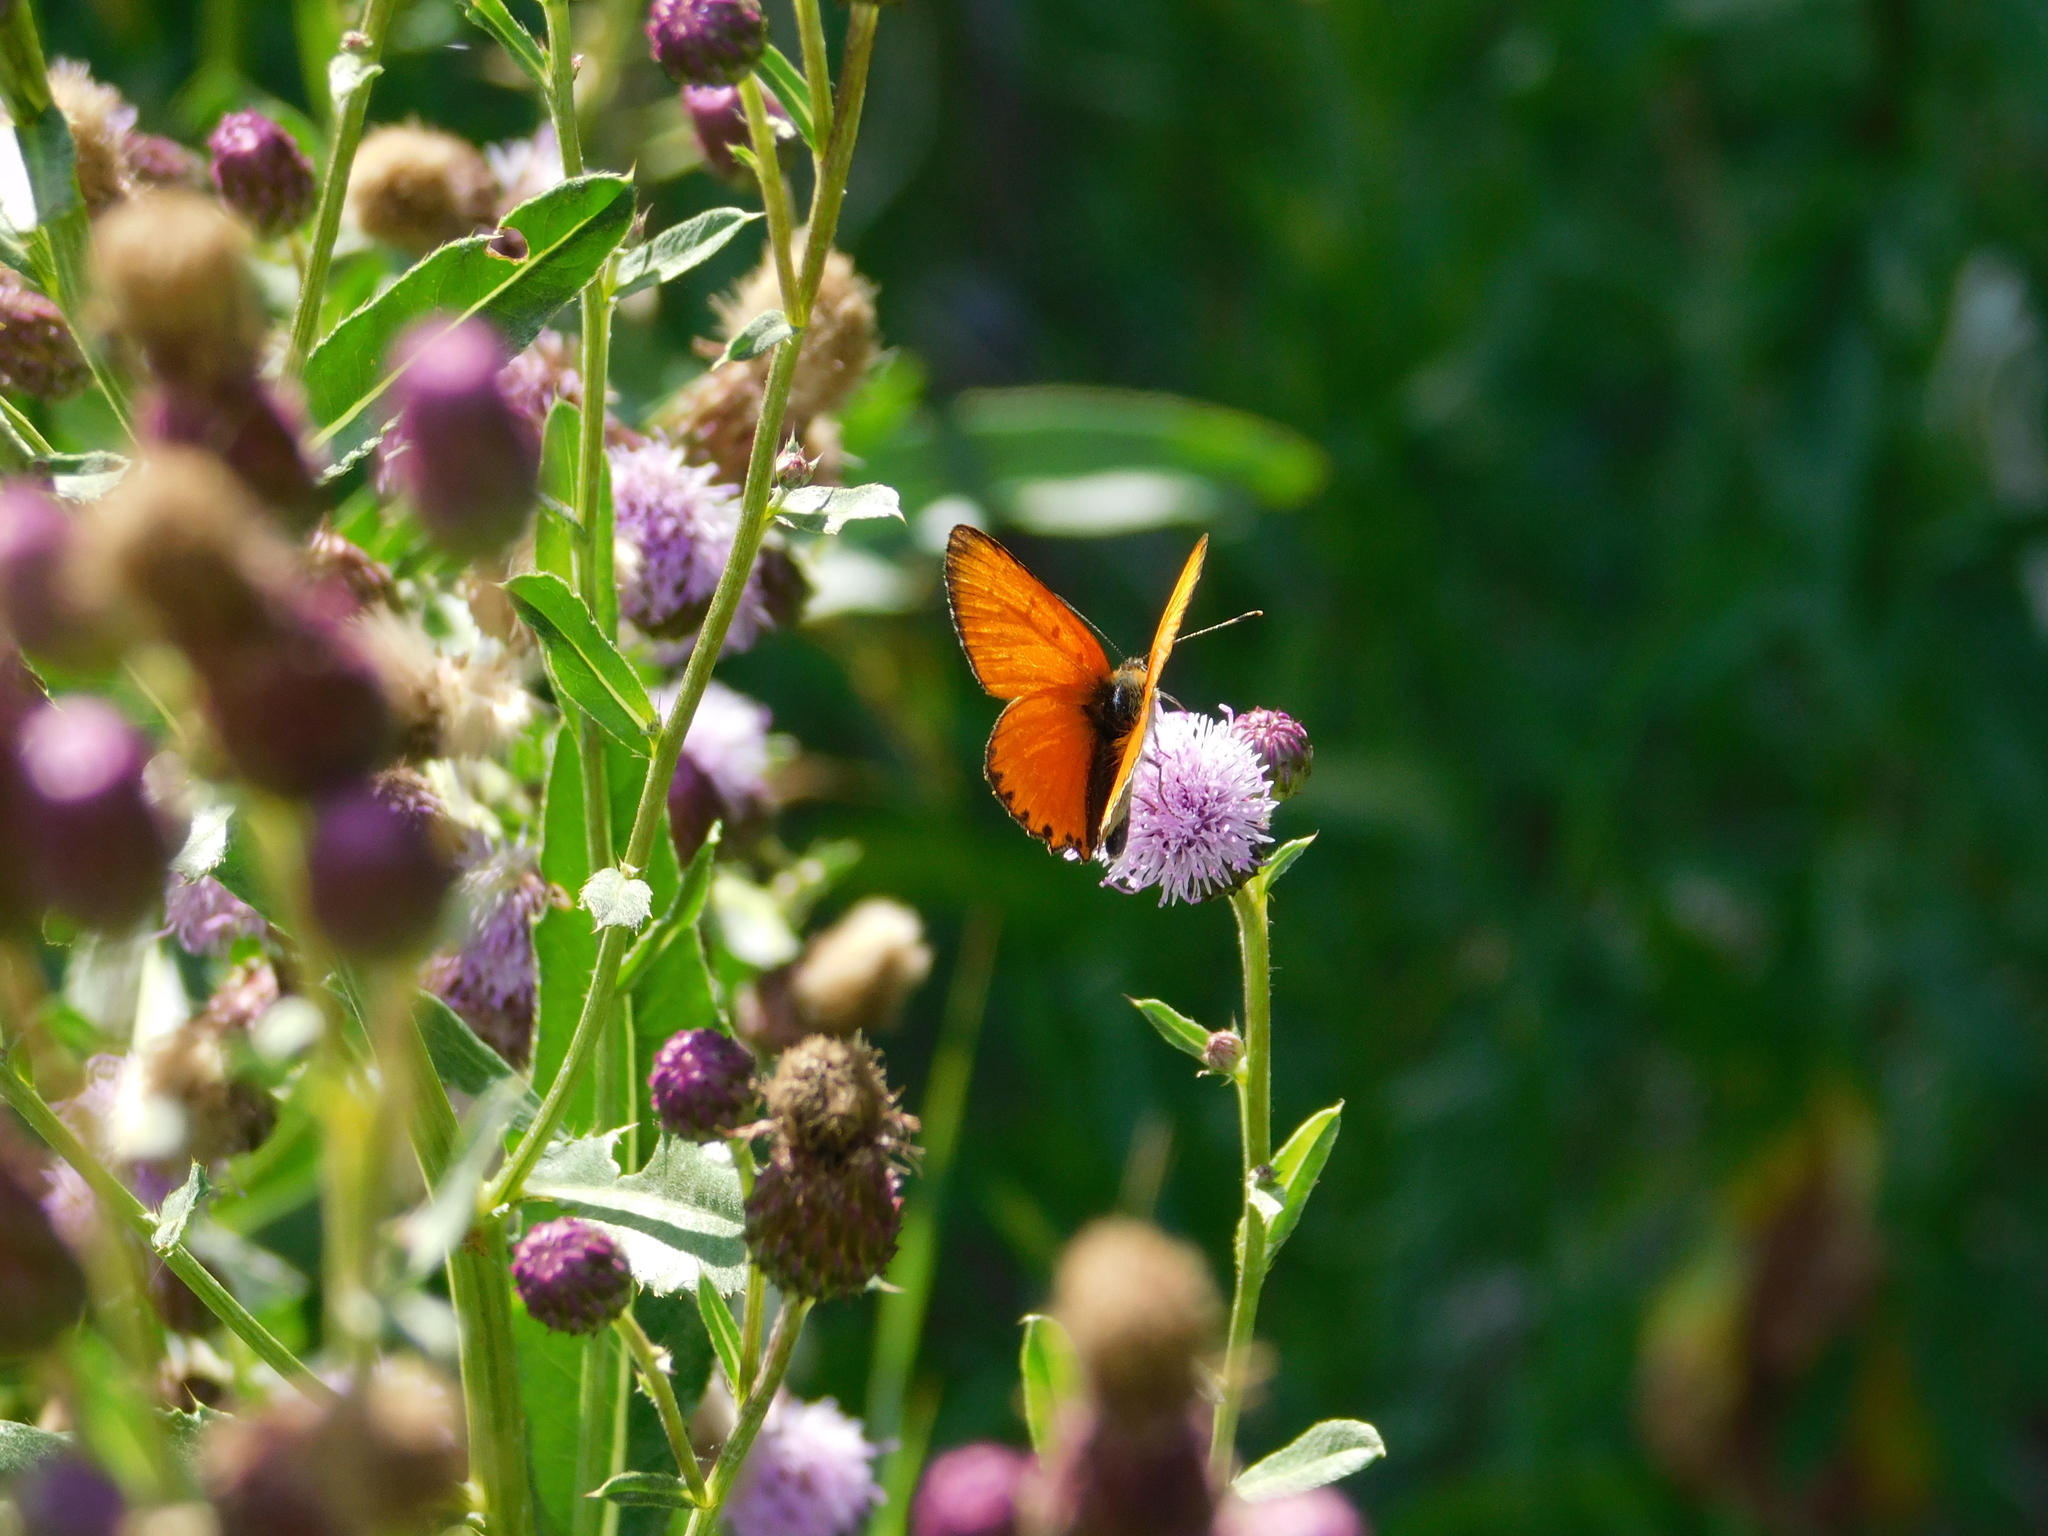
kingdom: Animalia
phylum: Arthropoda
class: Insecta
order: Lepidoptera
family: Lycaenidae
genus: Lycaena
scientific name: Lycaena virgaureae
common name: Scarce copper
